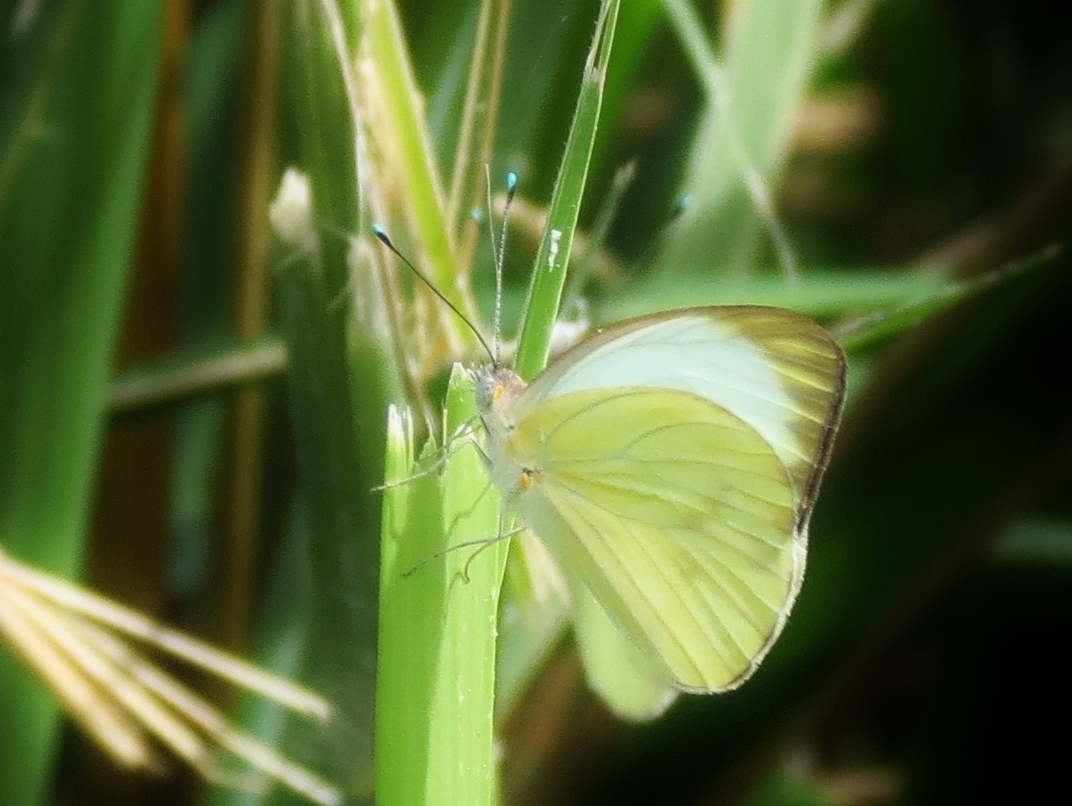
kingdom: Animalia
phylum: Arthropoda
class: Insecta
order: Lepidoptera
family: Pieridae
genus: Ascia
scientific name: Ascia monuste
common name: Great southern white
